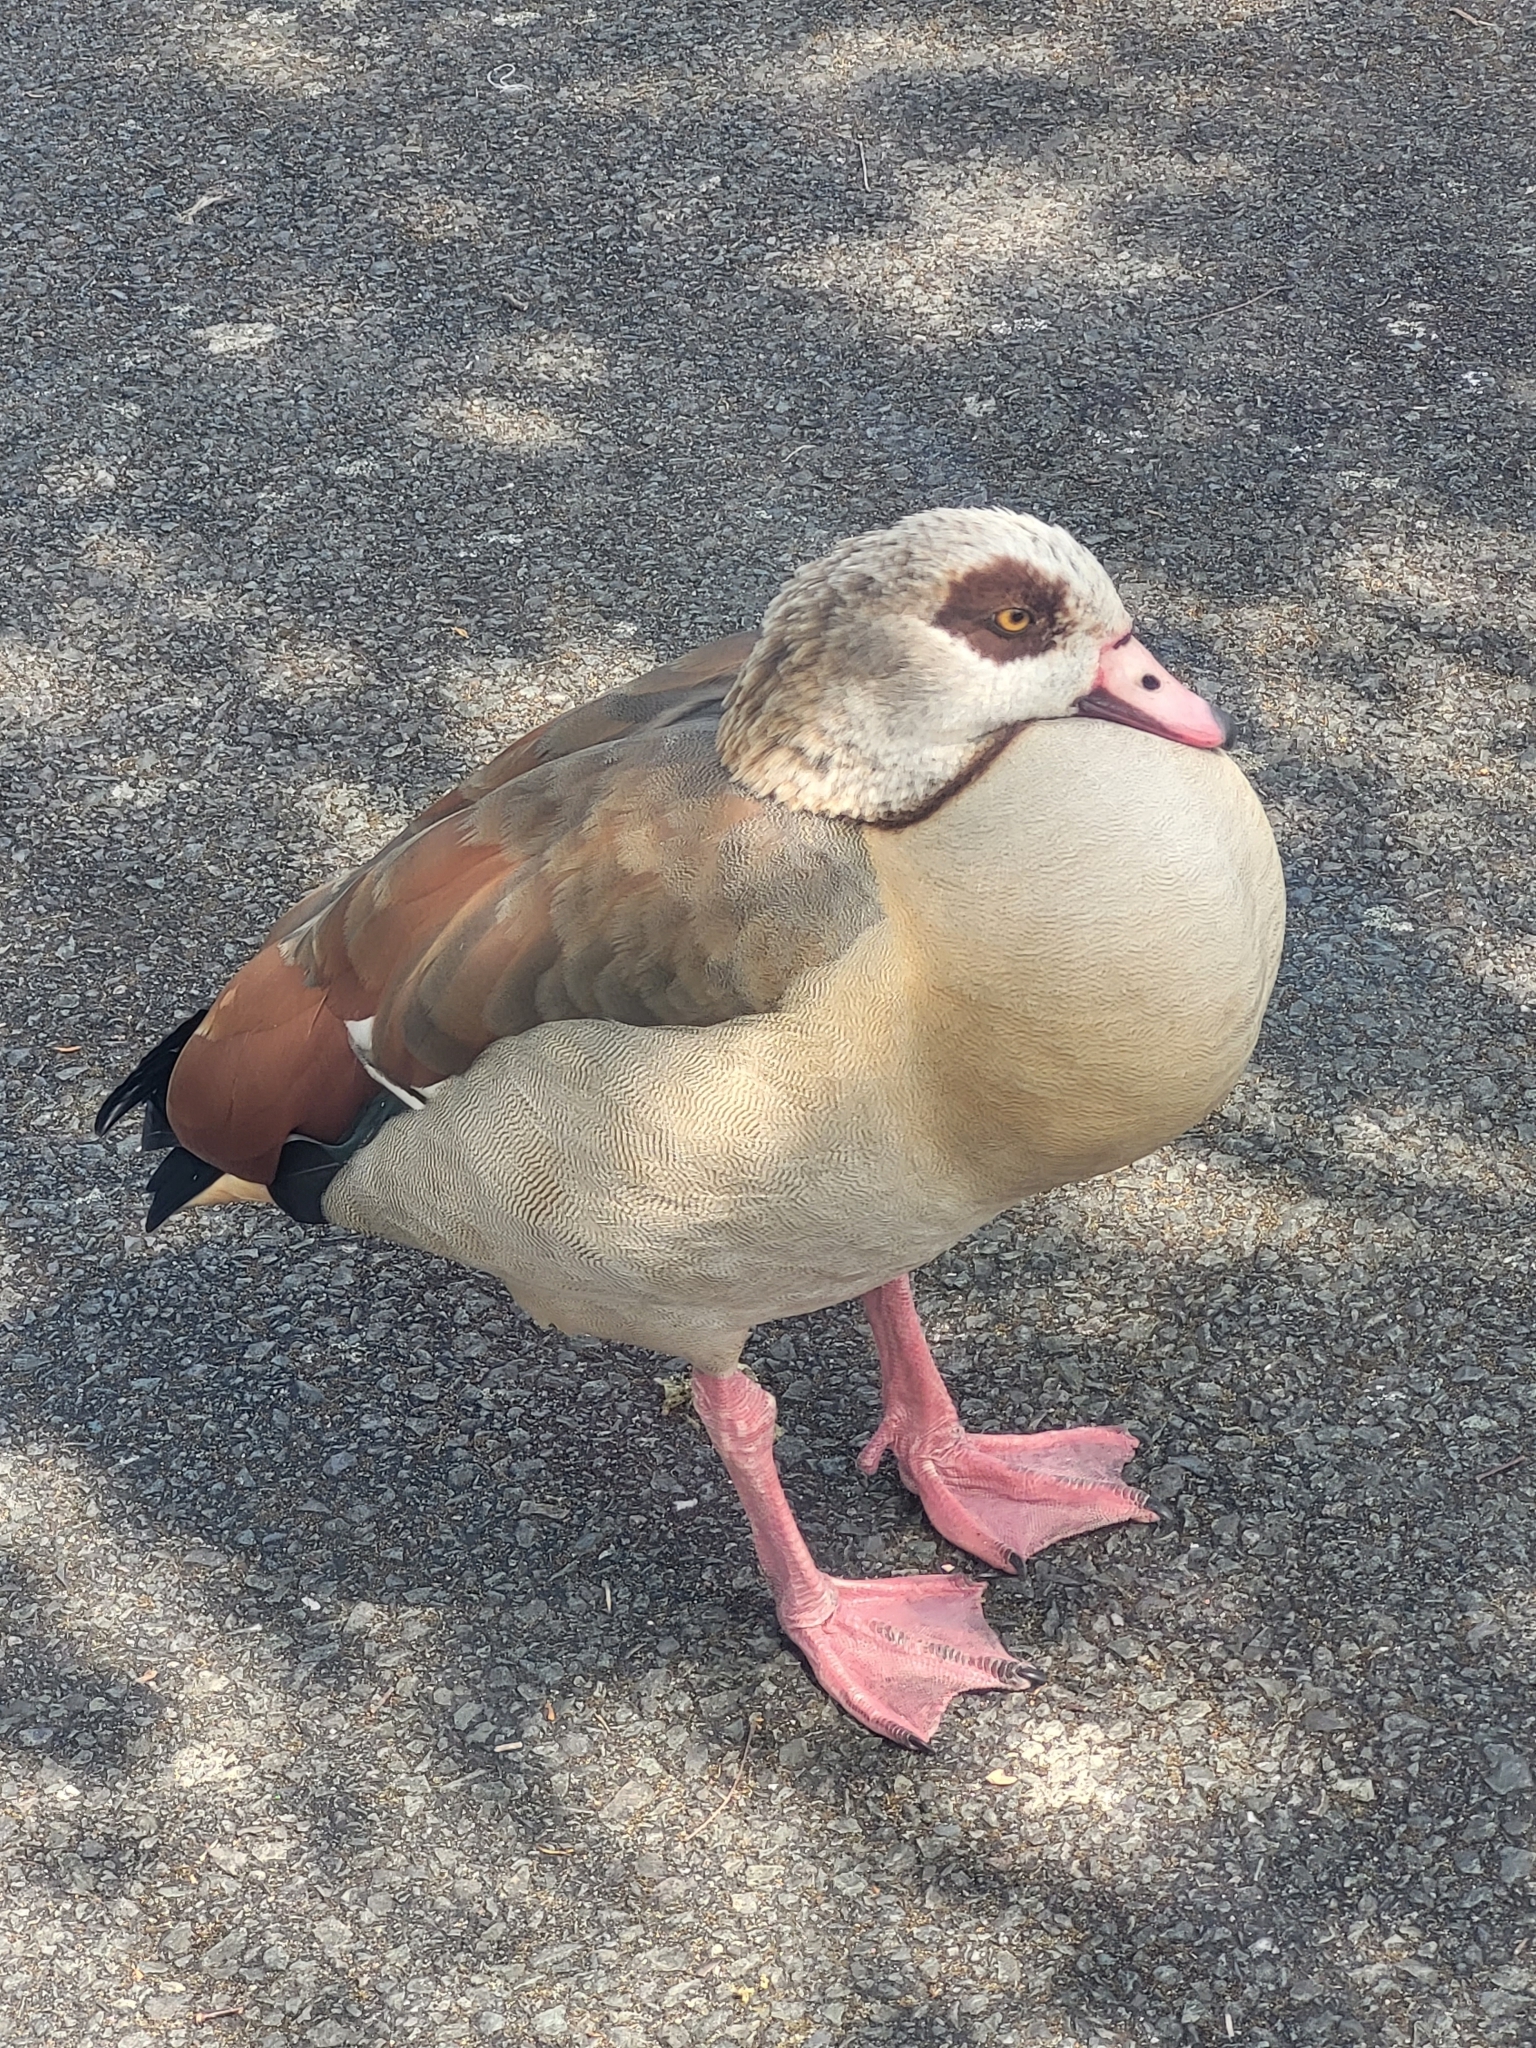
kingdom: Animalia
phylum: Chordata
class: Aves
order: Anseriformes
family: Anatidae
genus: Alopochen
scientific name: Alopochen aegyptiaca
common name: Egyptian goose
